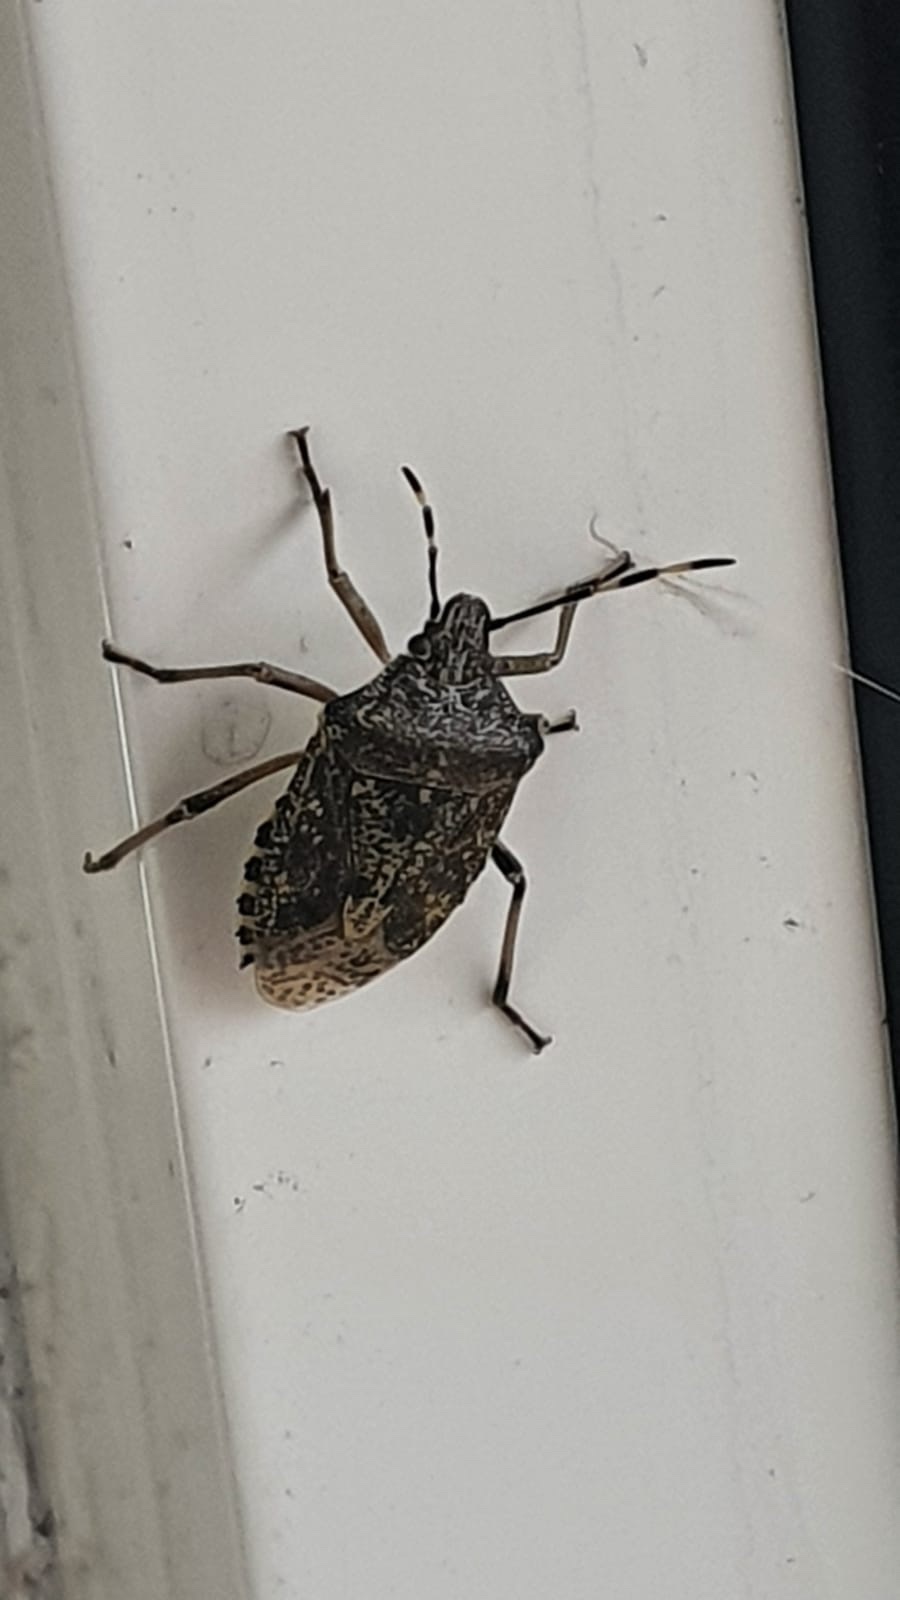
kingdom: Animalia
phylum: Arthropoda
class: Insecta
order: Hemiptera
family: Pentatomidae
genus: Rhaphigaster
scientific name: Rhaphigaster nebulosa
